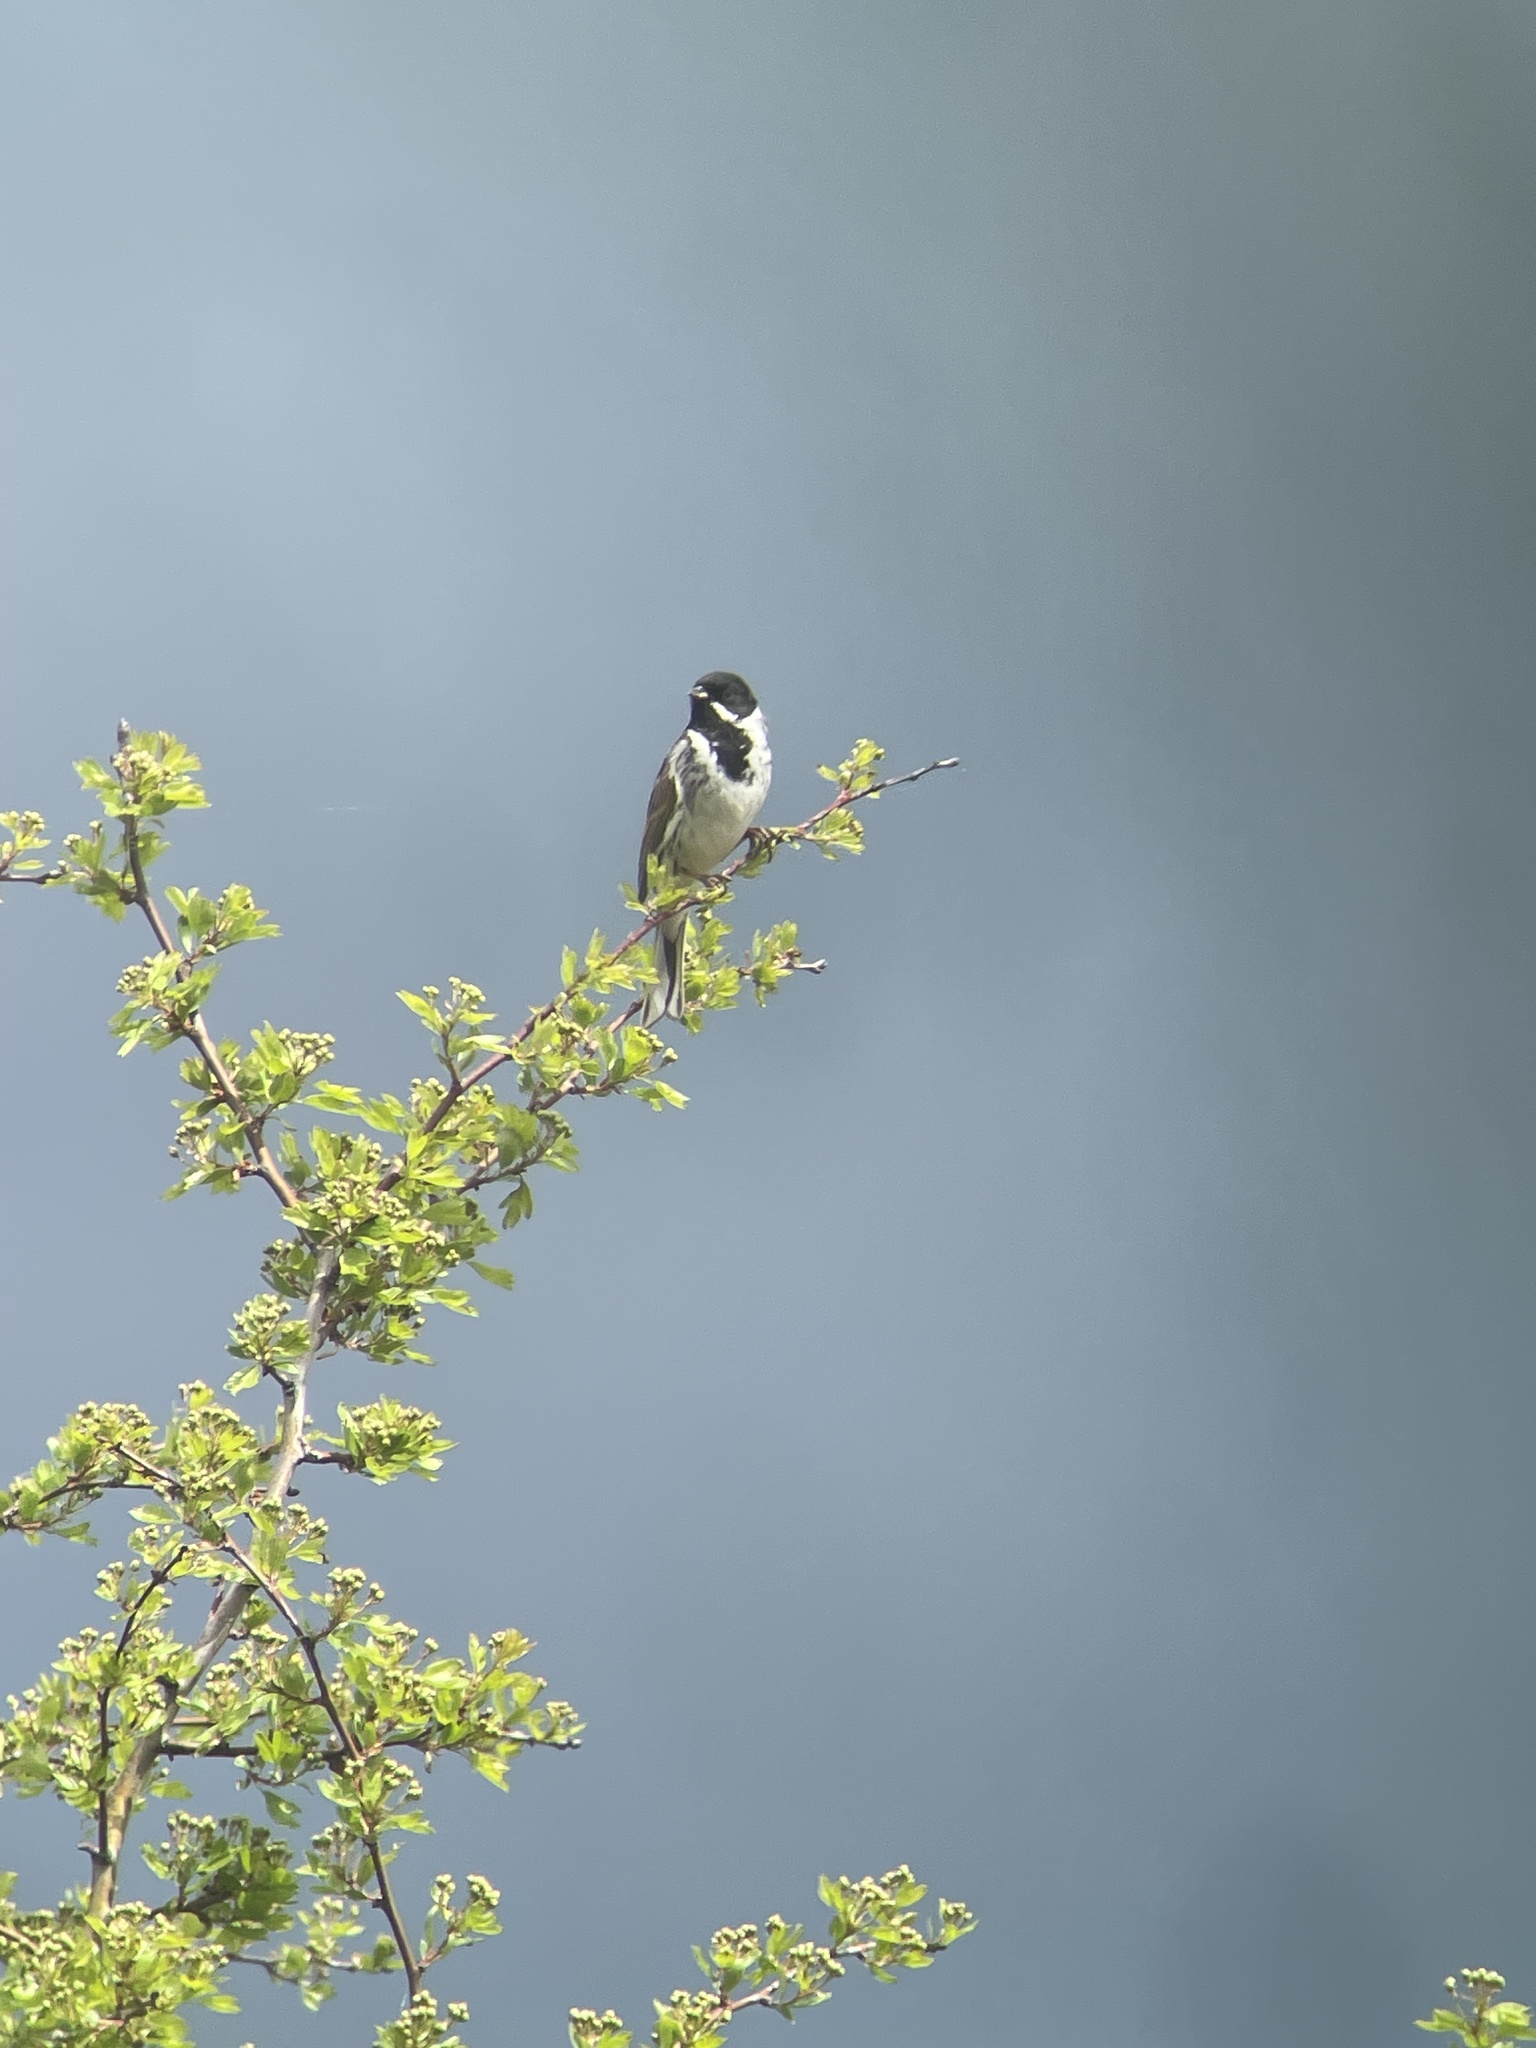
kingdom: Animalia
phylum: Chordata
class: Aves
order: Passeriformes
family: Emberizidae
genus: Emberiza
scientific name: Emberiza schoeniclus
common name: Reed bunting
